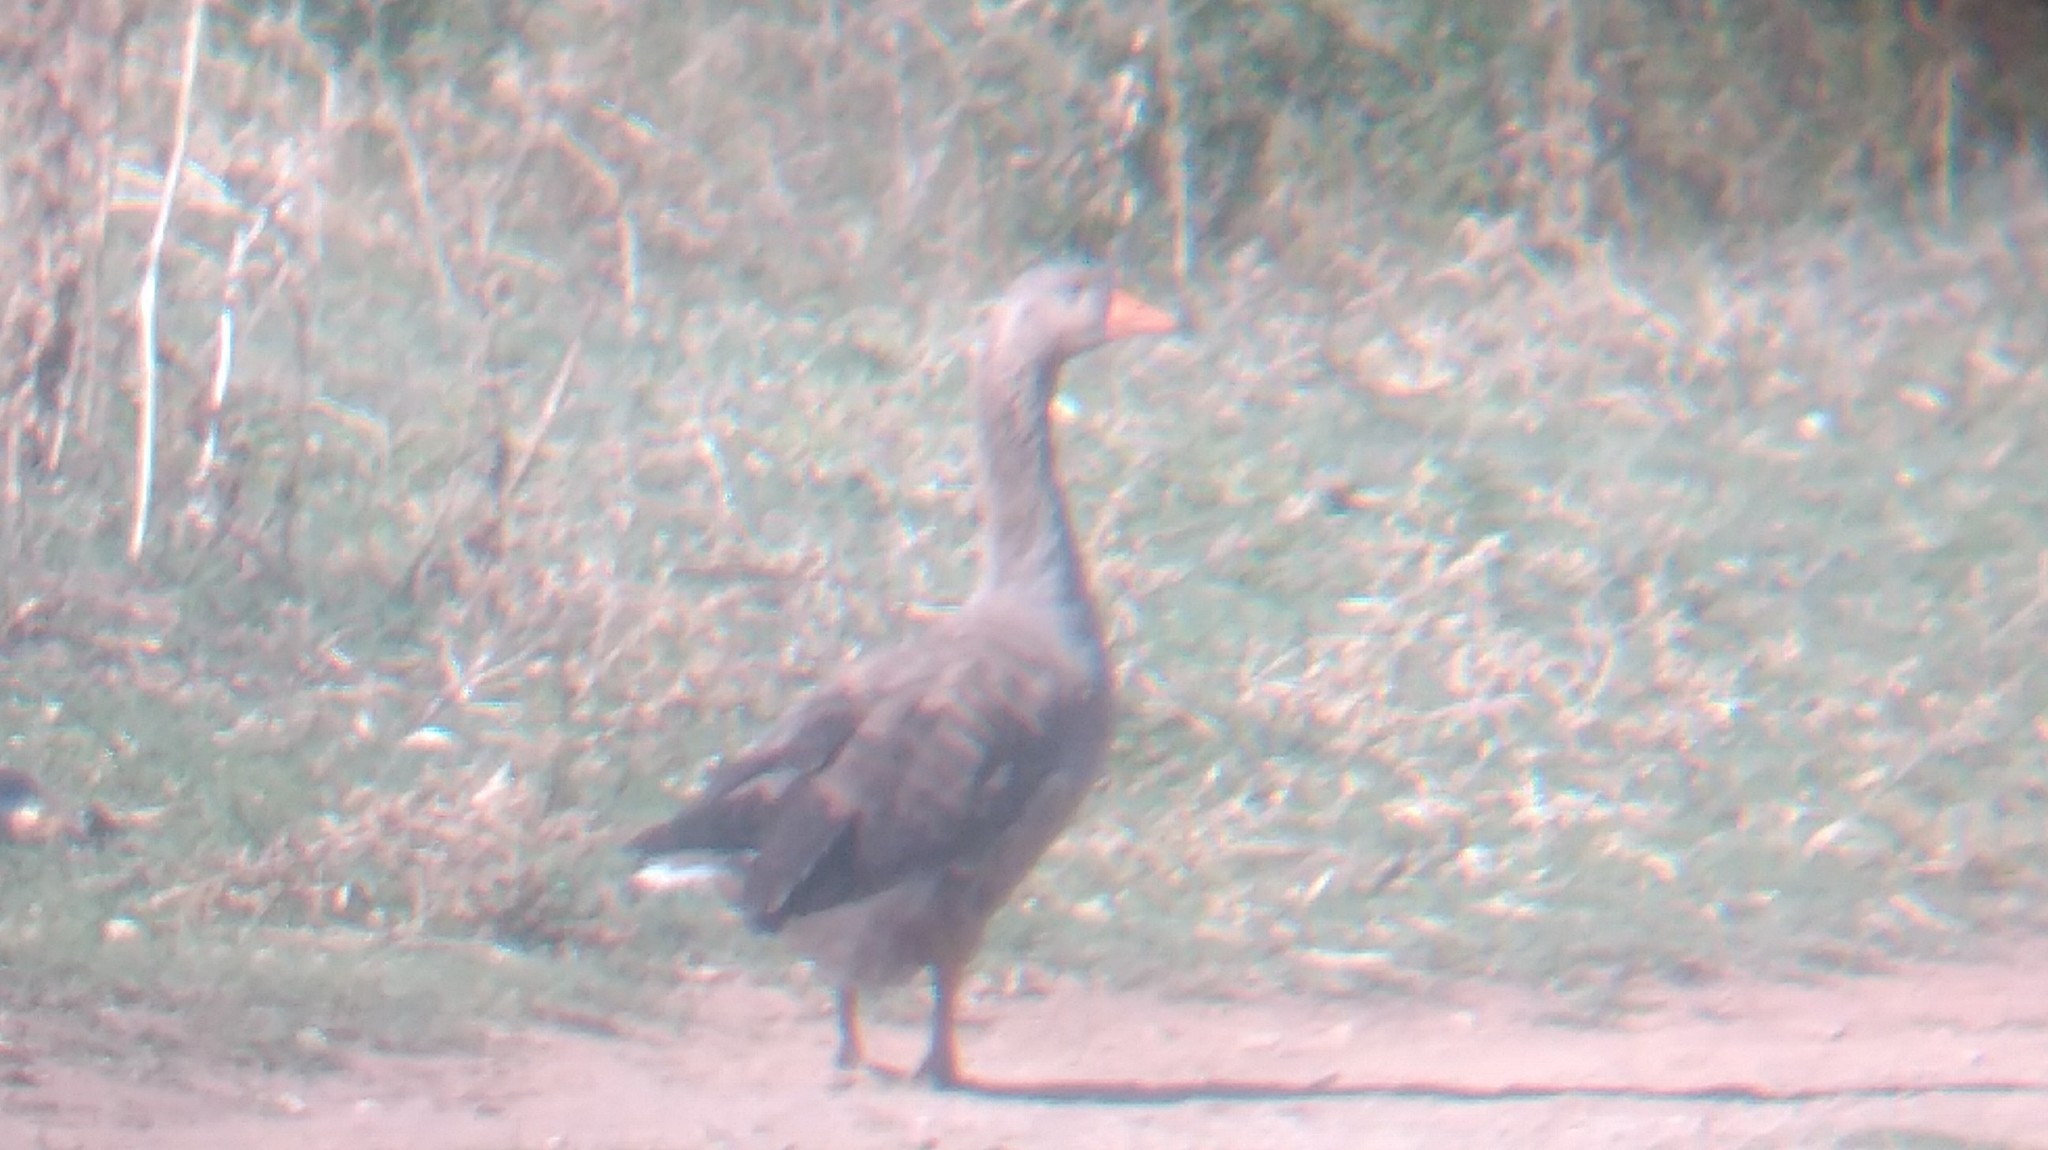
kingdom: Animalia
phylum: Chordata
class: Aves
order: Anseriformes
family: Anatidae
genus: Anser
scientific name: Anser anser
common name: Greylag goose
